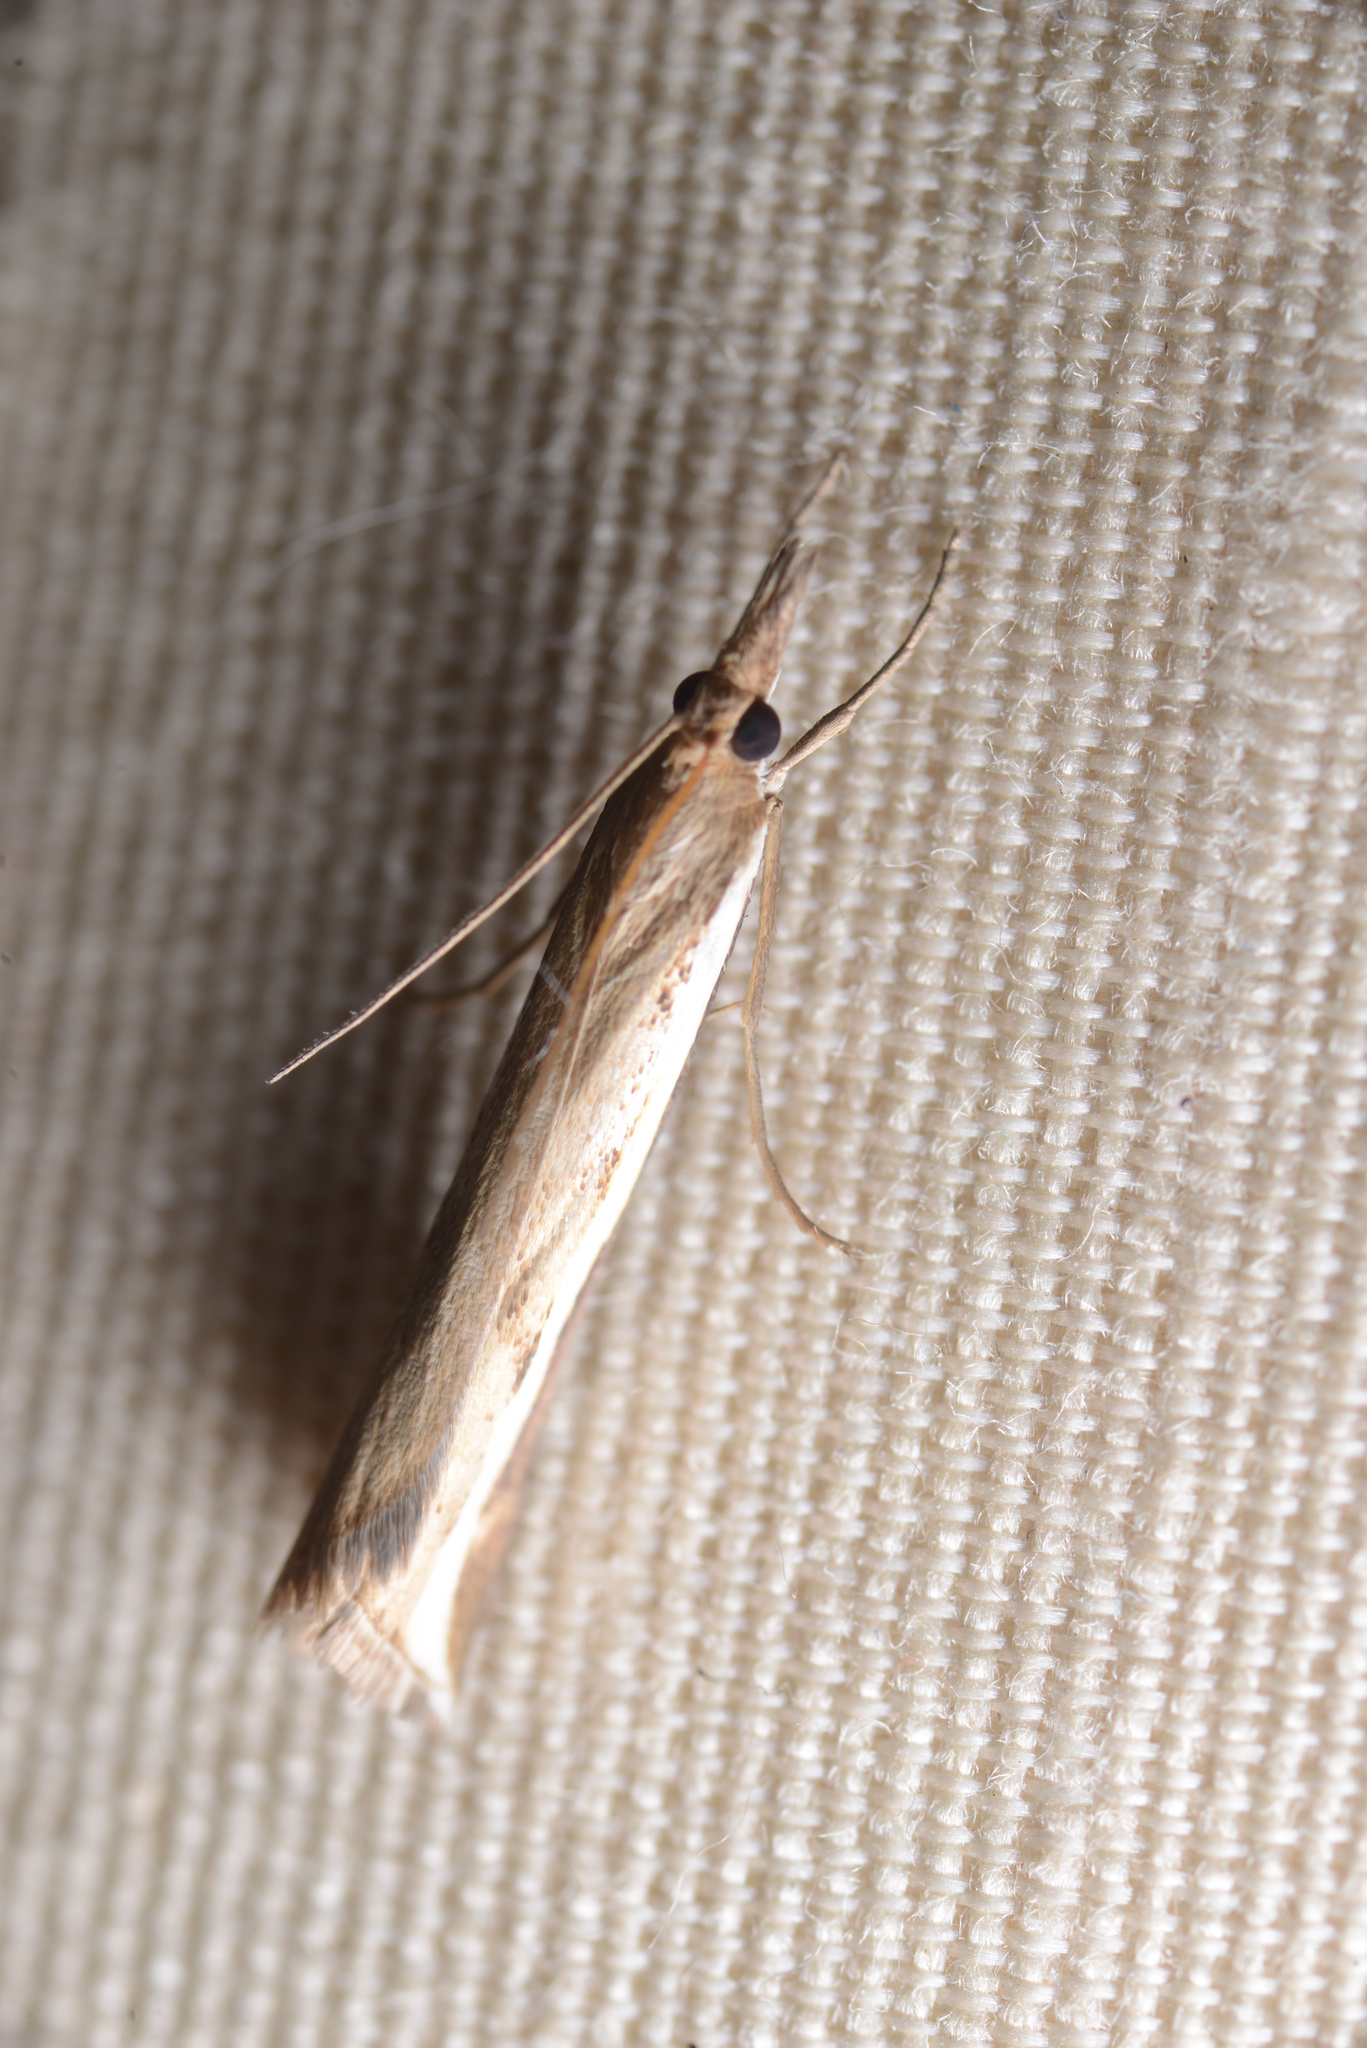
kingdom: Animalia
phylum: Arthropoda
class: Insecta
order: Lepidoptera
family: Crambidae
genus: Orocrambus
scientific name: Orocrambus flexuosellus
